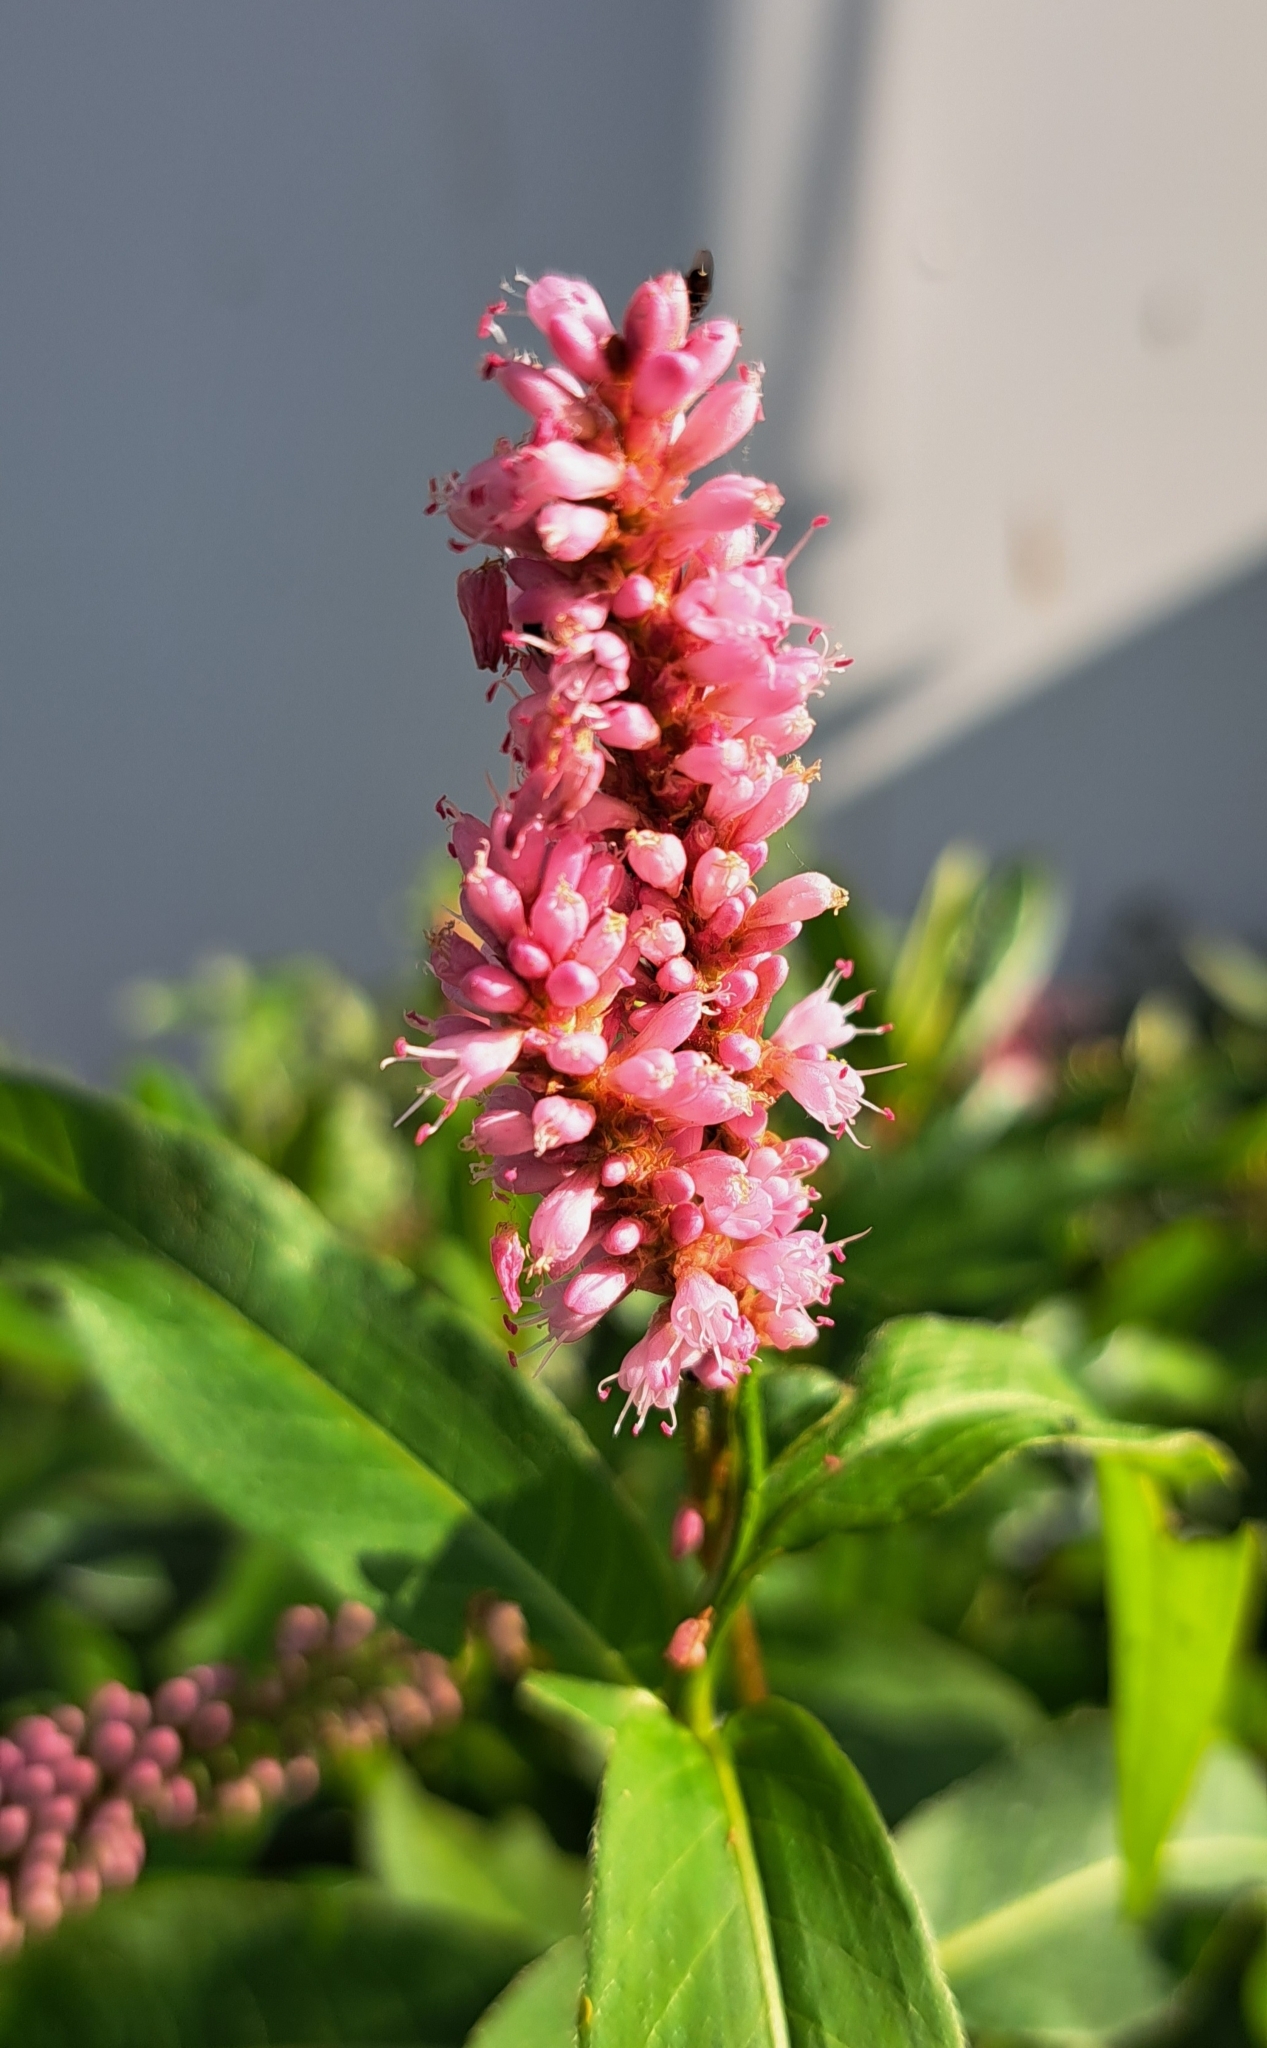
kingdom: Plantae
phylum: Tracheophyta
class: Magnoliopsida
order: Caryophyllales
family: Polygonaceae
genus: Persicaria
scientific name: Persicaria amphibia
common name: Amphibious bistort
